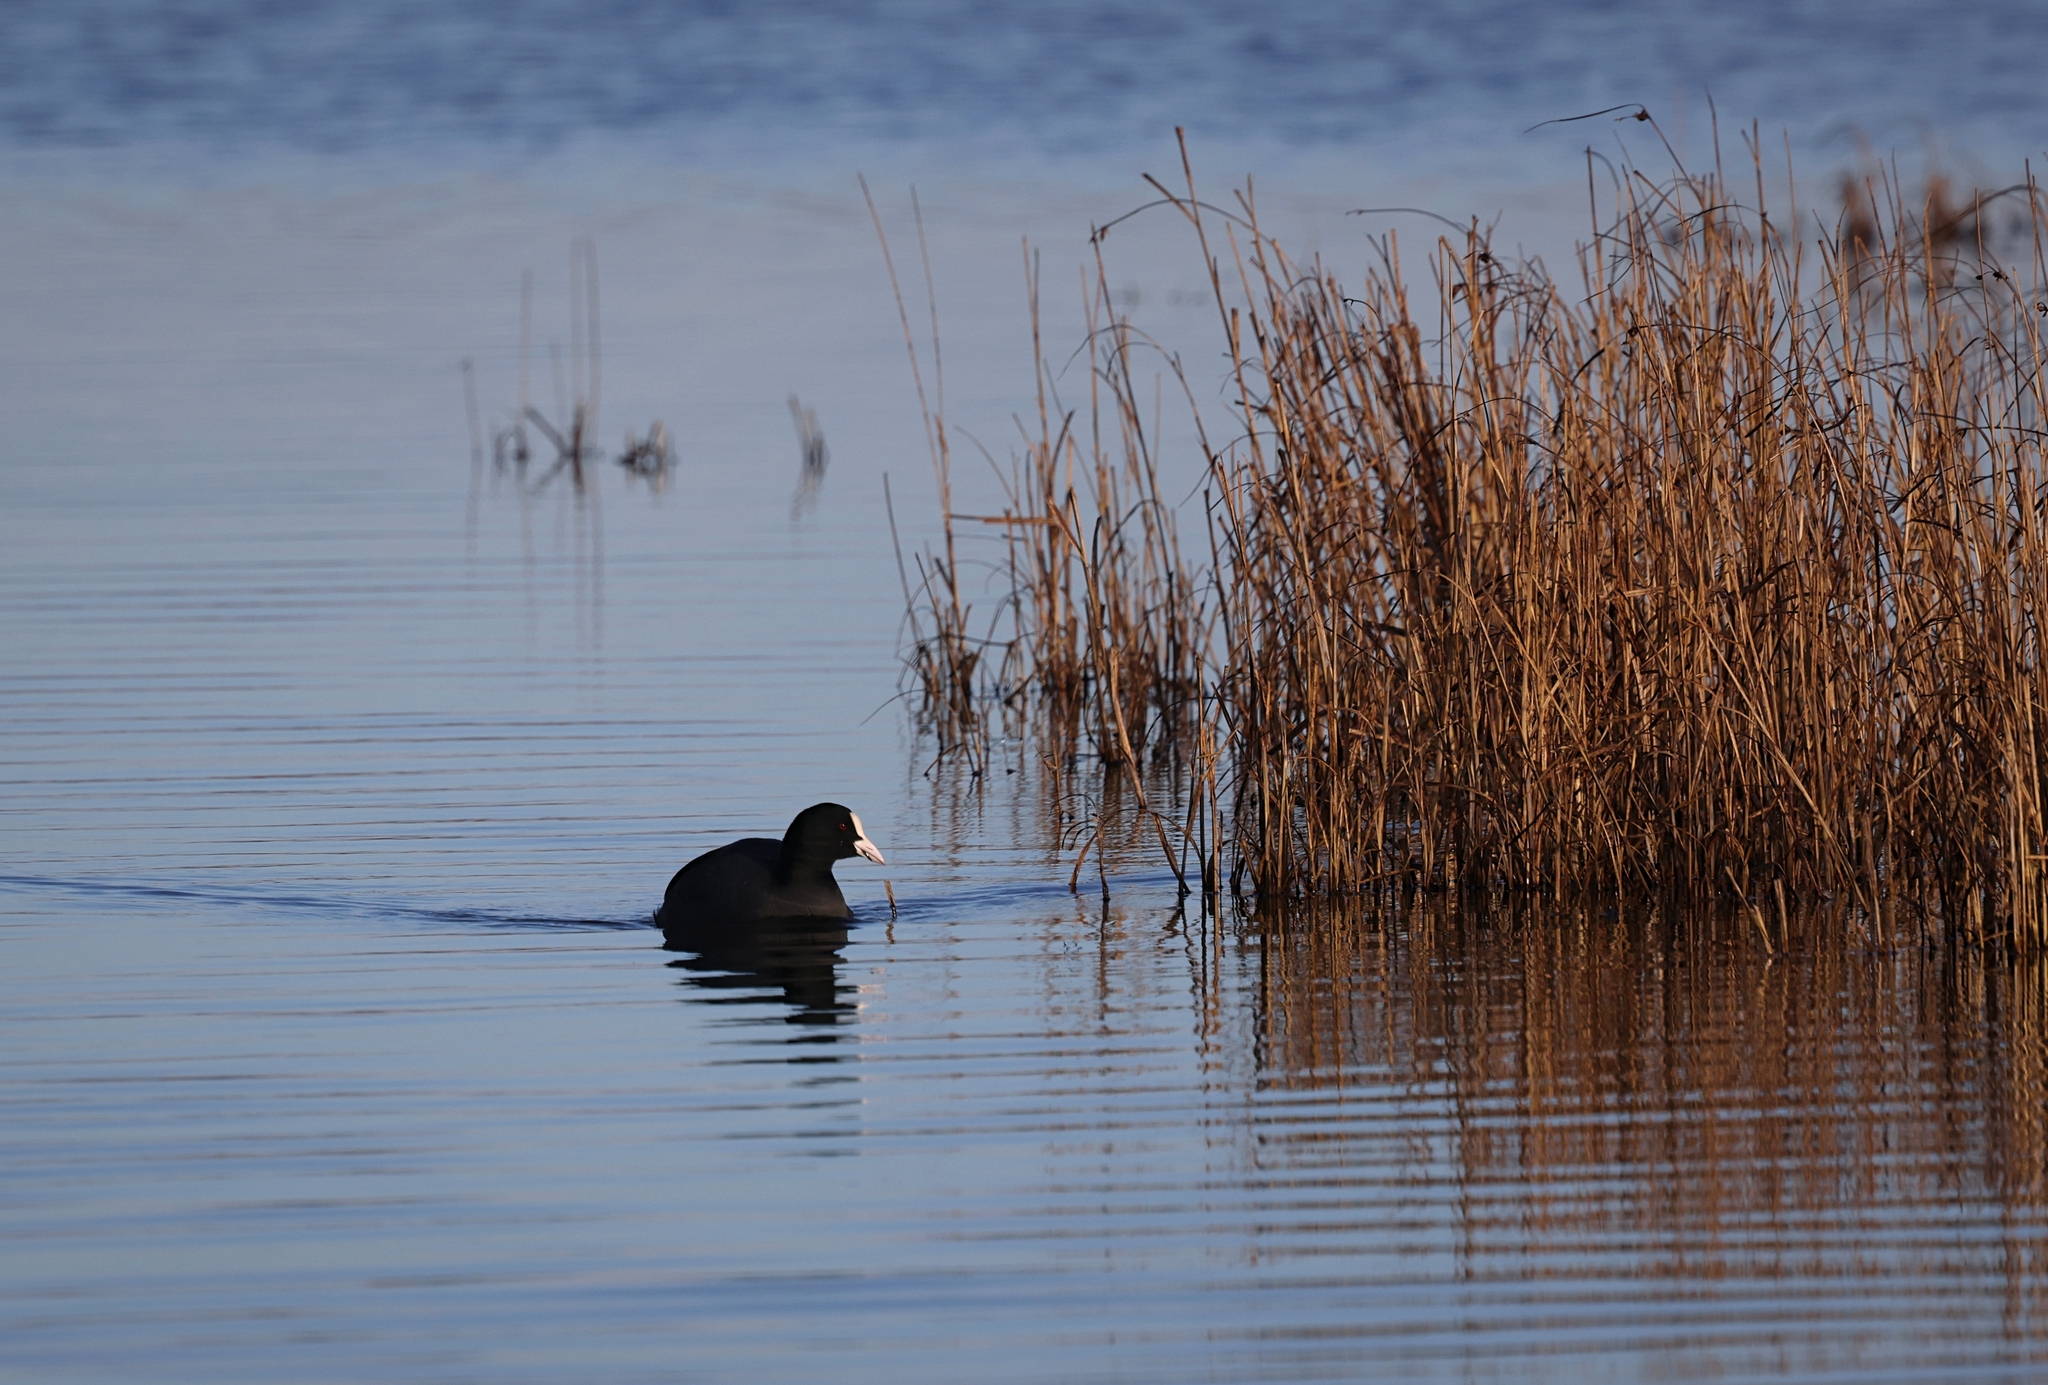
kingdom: Animalia
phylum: Chordata
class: Aves
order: Gruiformes
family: Rallidae
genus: Fulica
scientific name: Fulica atra
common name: Eurasian coot
